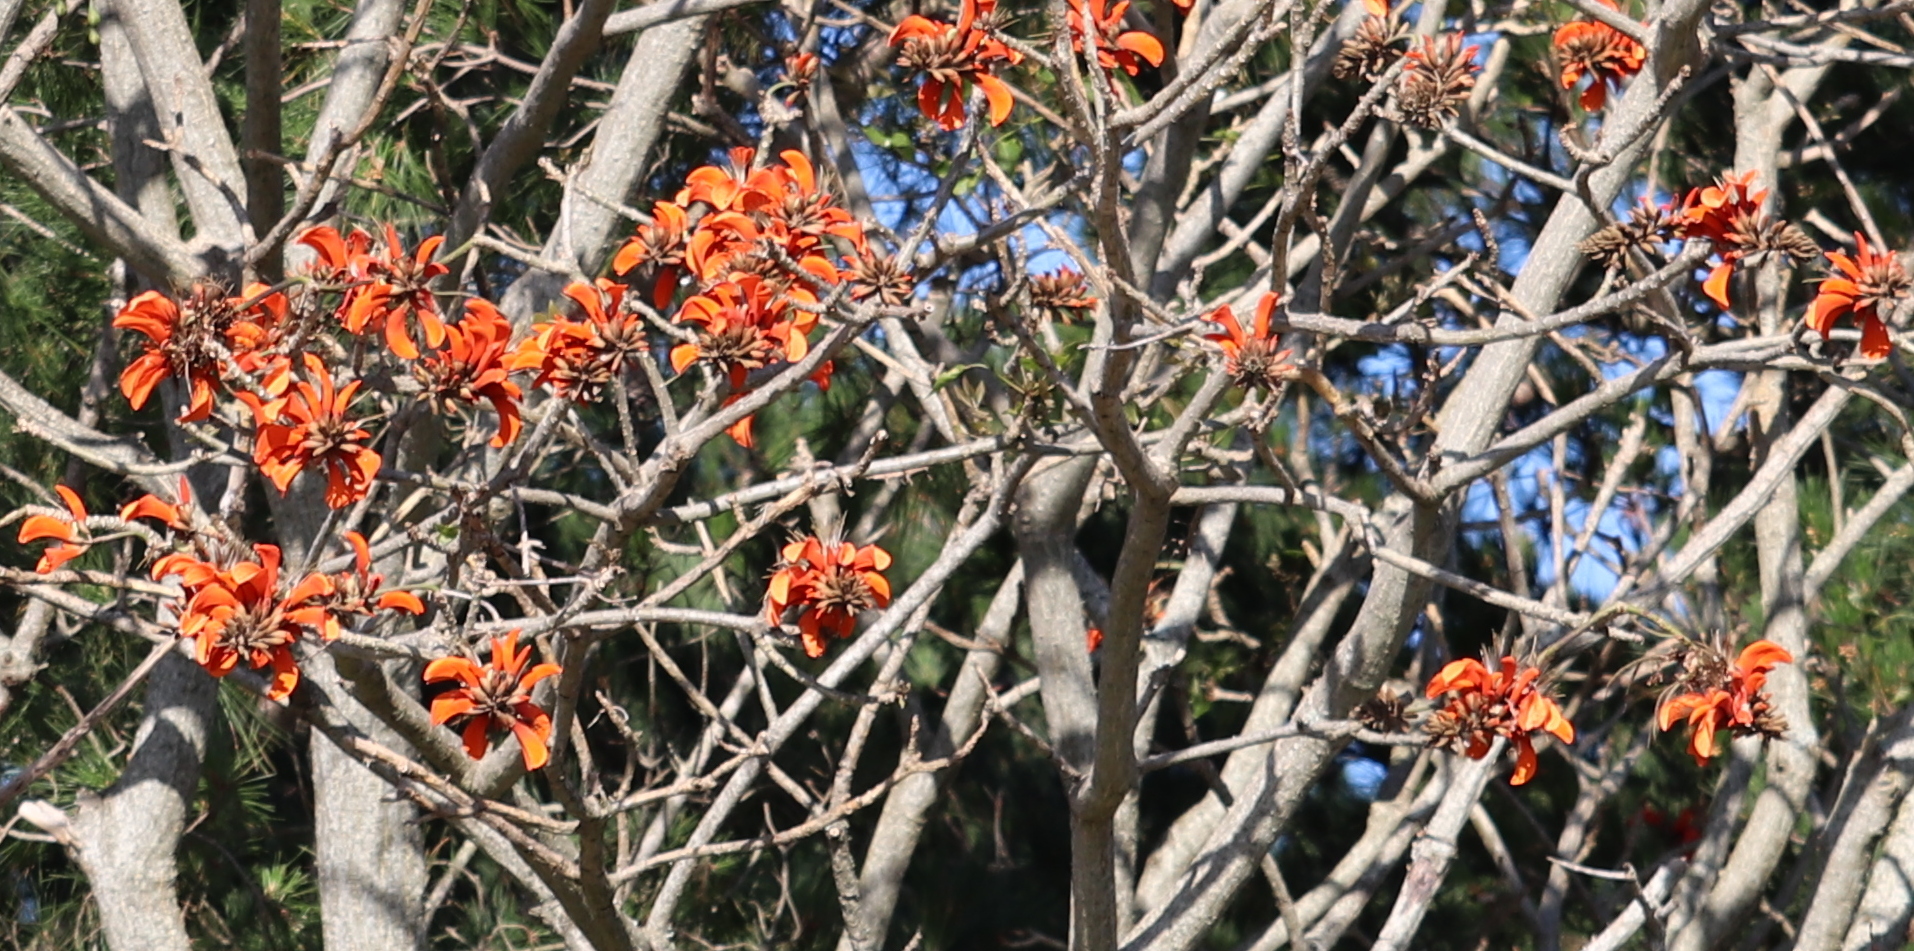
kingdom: Plantae
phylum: Tracheophyta
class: Magnoliopsida
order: Fabales
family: Fabaceae
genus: Erythrina
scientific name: Erythrina caffra
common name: Coast coral tree
